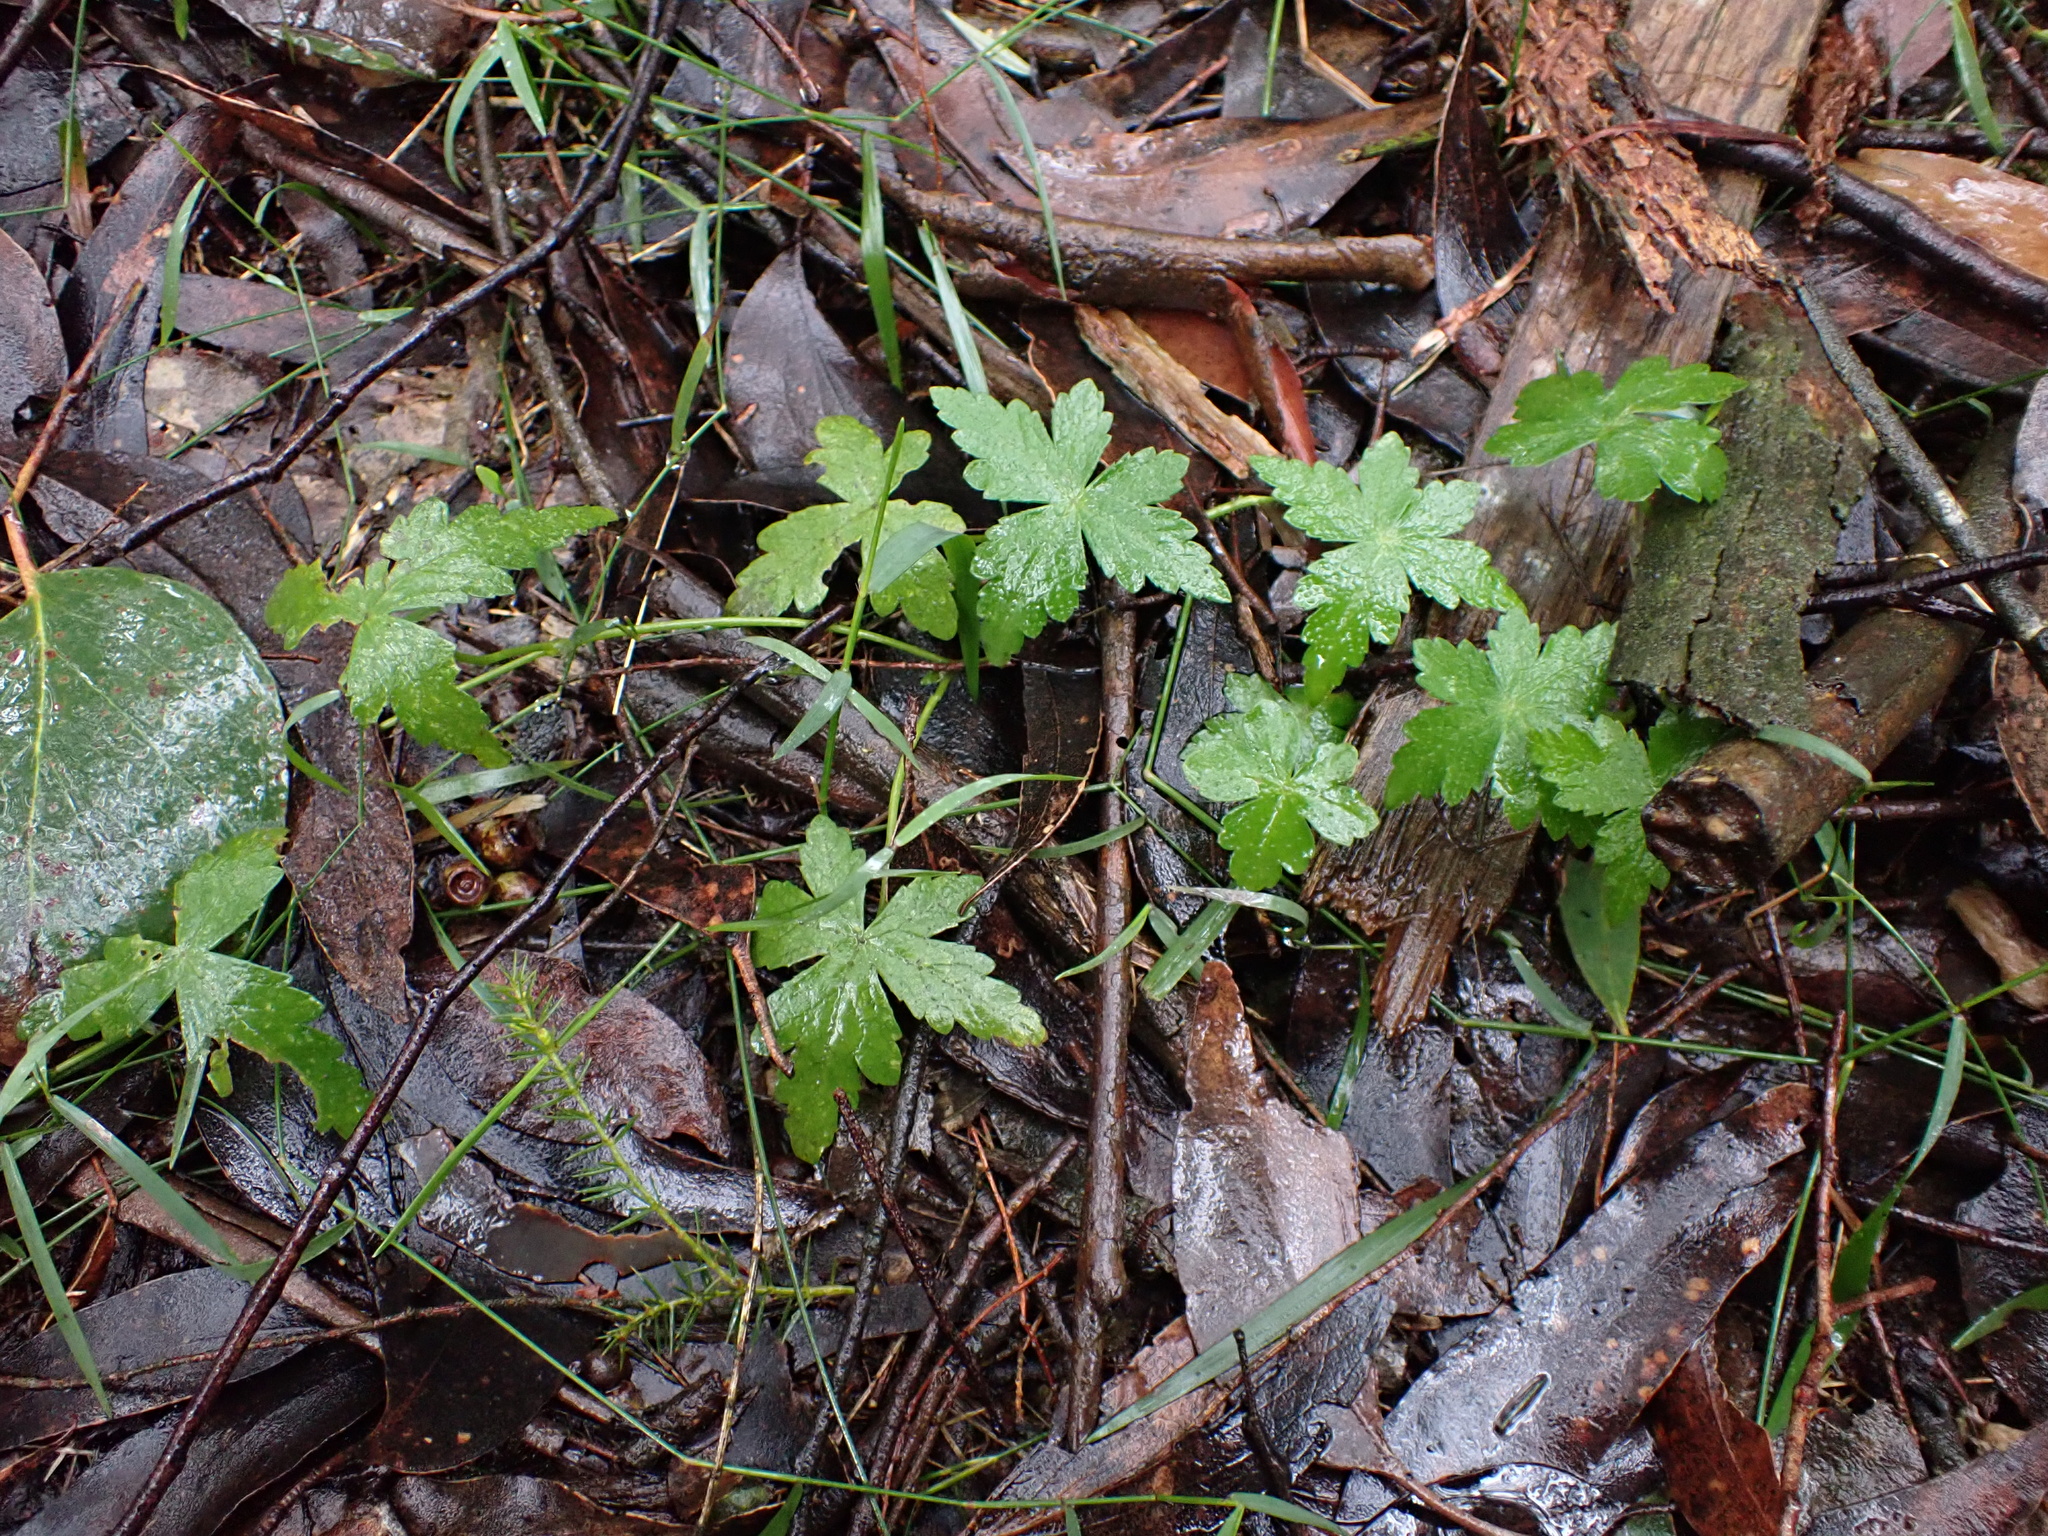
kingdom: Plantae
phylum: Tracheophyta
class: Magnoliopsida
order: Apiales
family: Araliaceae
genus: Hydrocotyle
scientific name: Hydrocotyle geraniifolia
